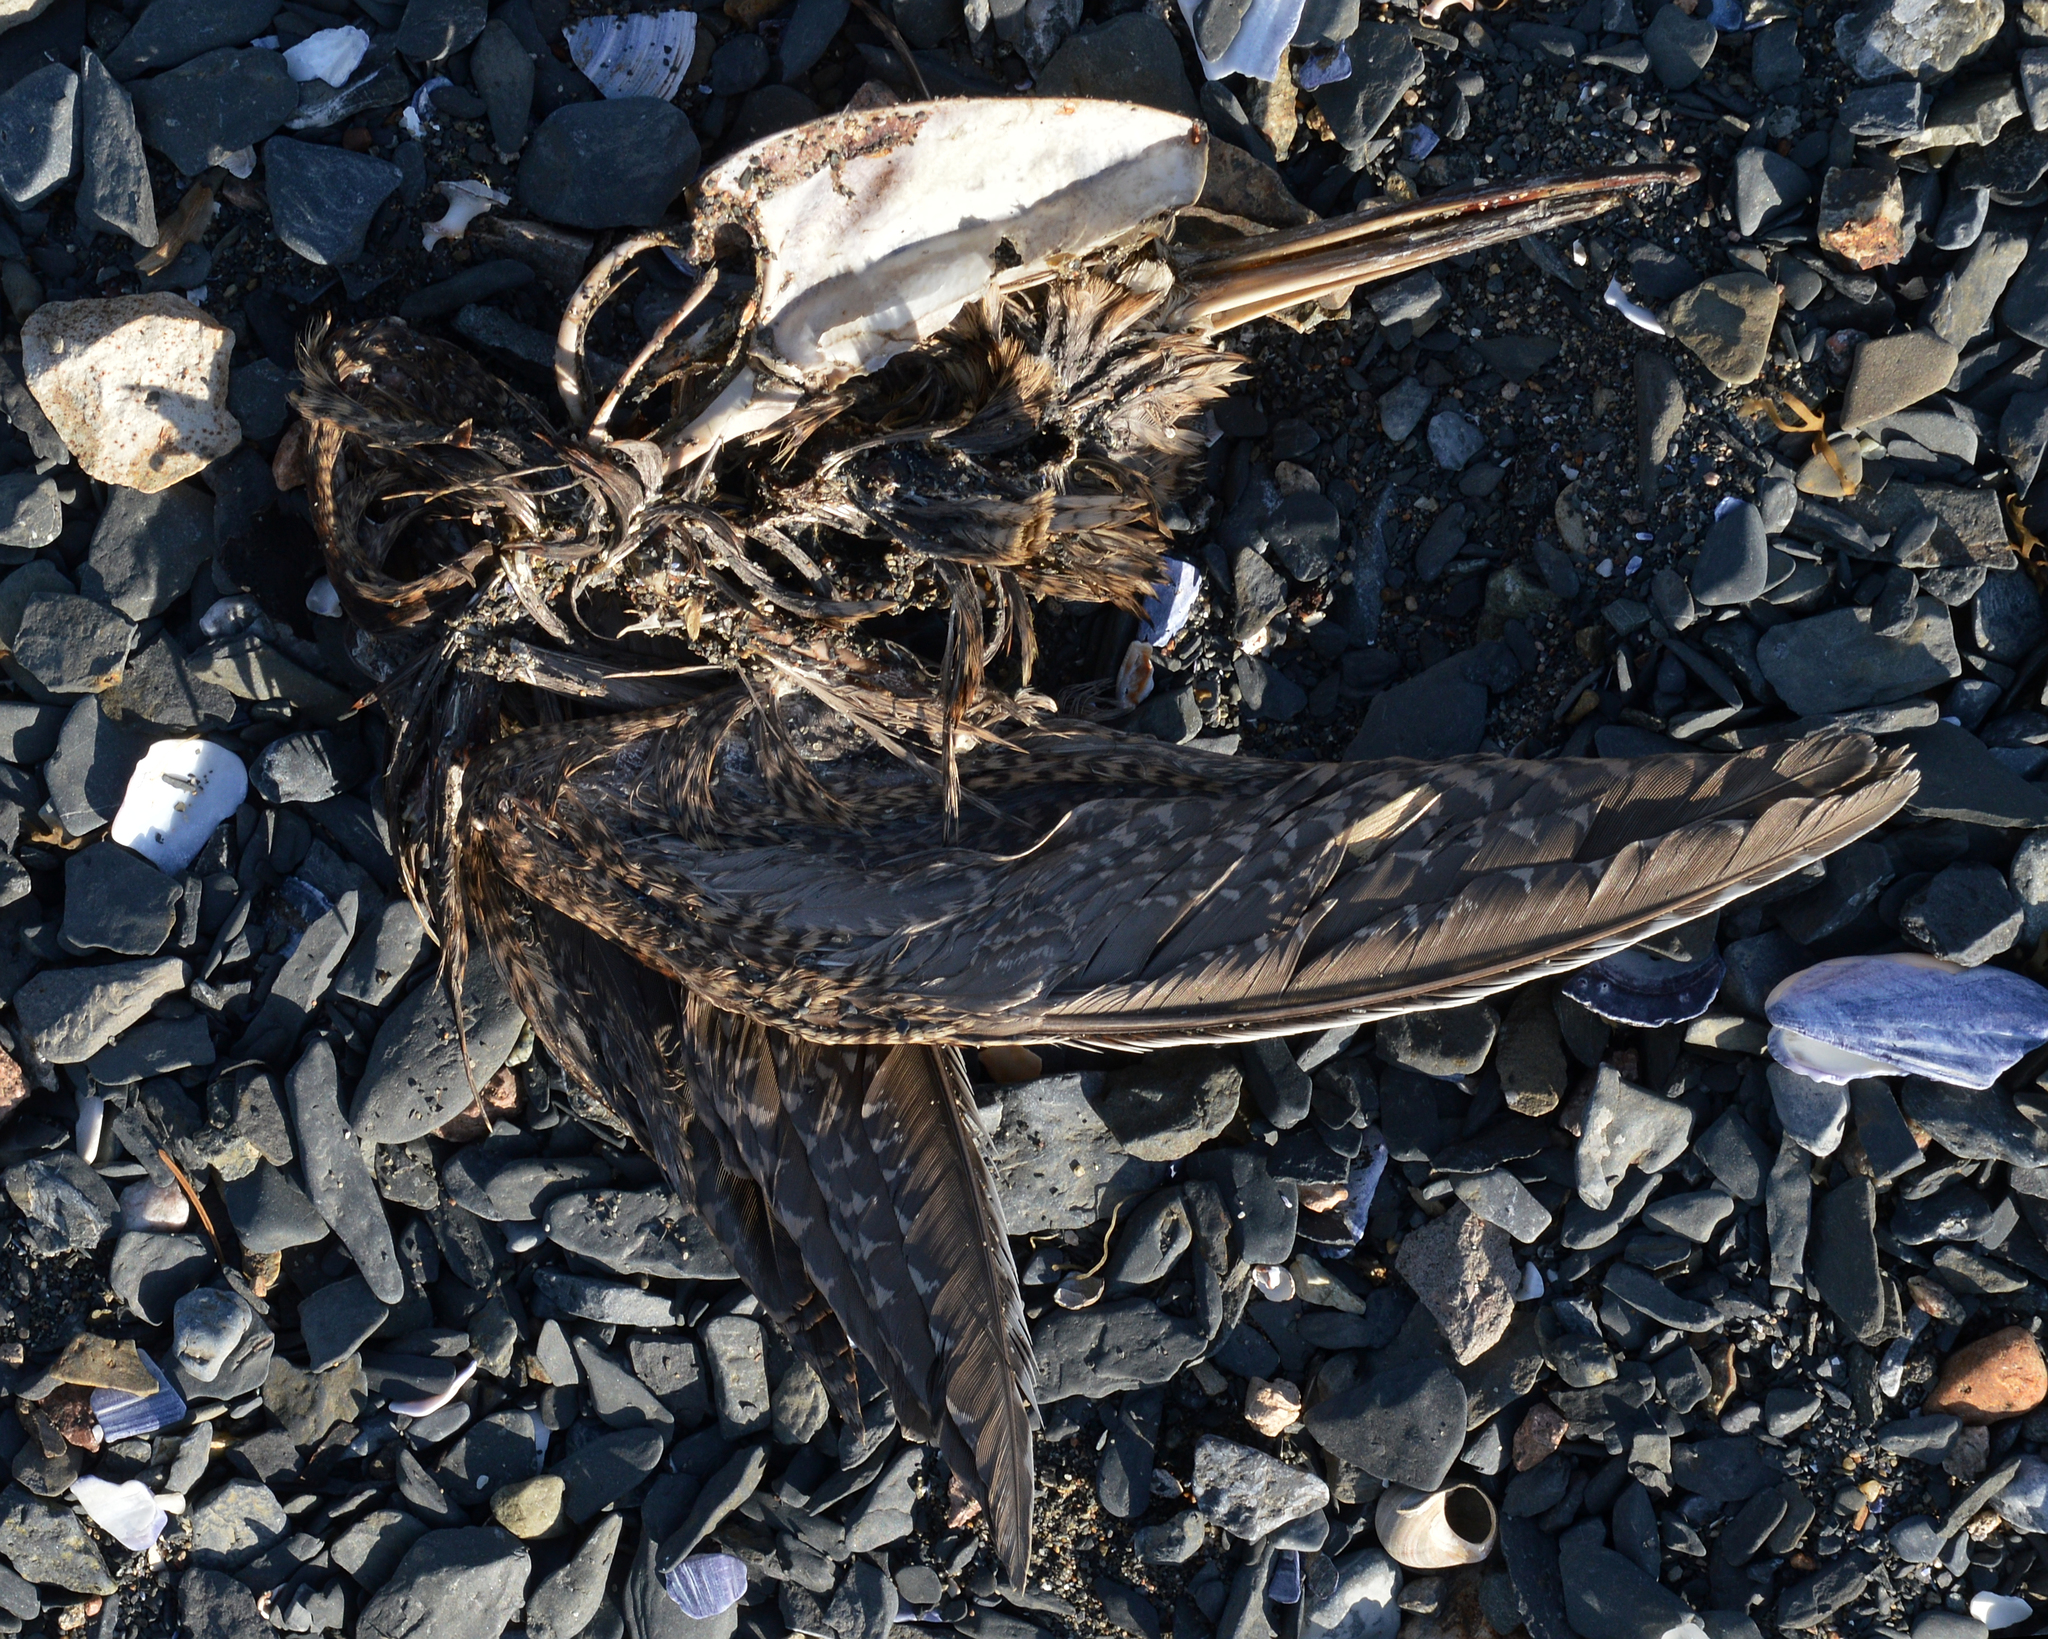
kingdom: Animalia
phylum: Chordata
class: Aves
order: Charadriiformes
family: Scolopacidae
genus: Scolopax
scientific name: Scolopax rusticola
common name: Eurasian woodcock
